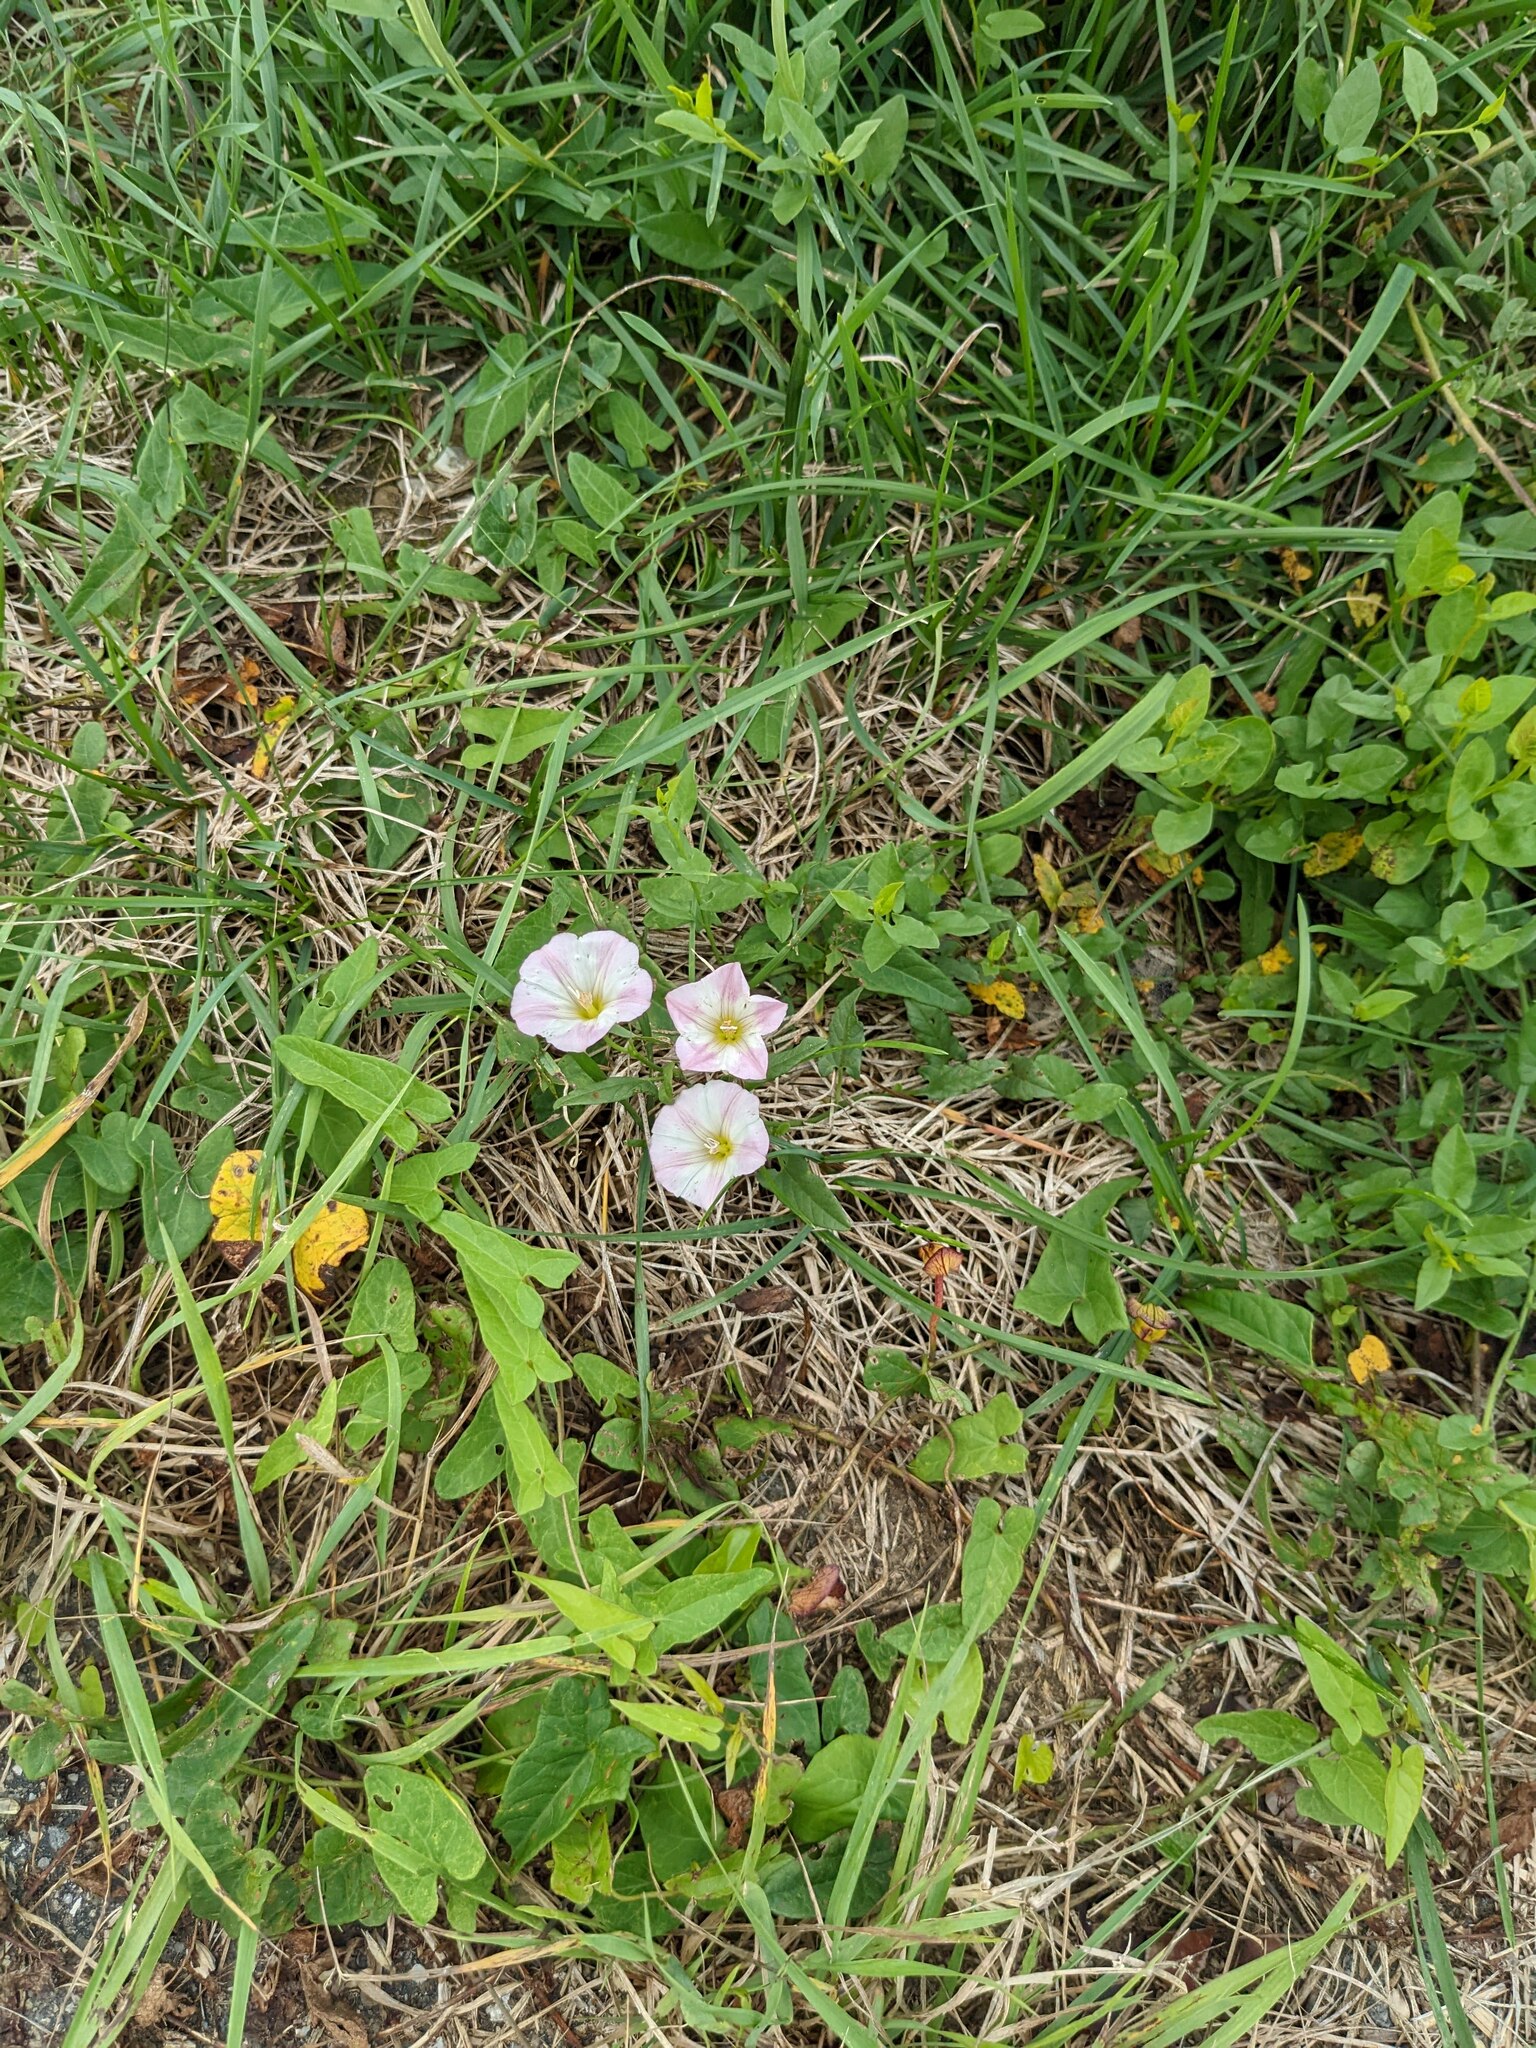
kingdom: Plantae
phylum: Tracheophyta
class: Magnoliopsida
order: Solanales
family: Convolvulaceae
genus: Convolvulus
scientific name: Convolvulus arvensis
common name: Field bindweed
